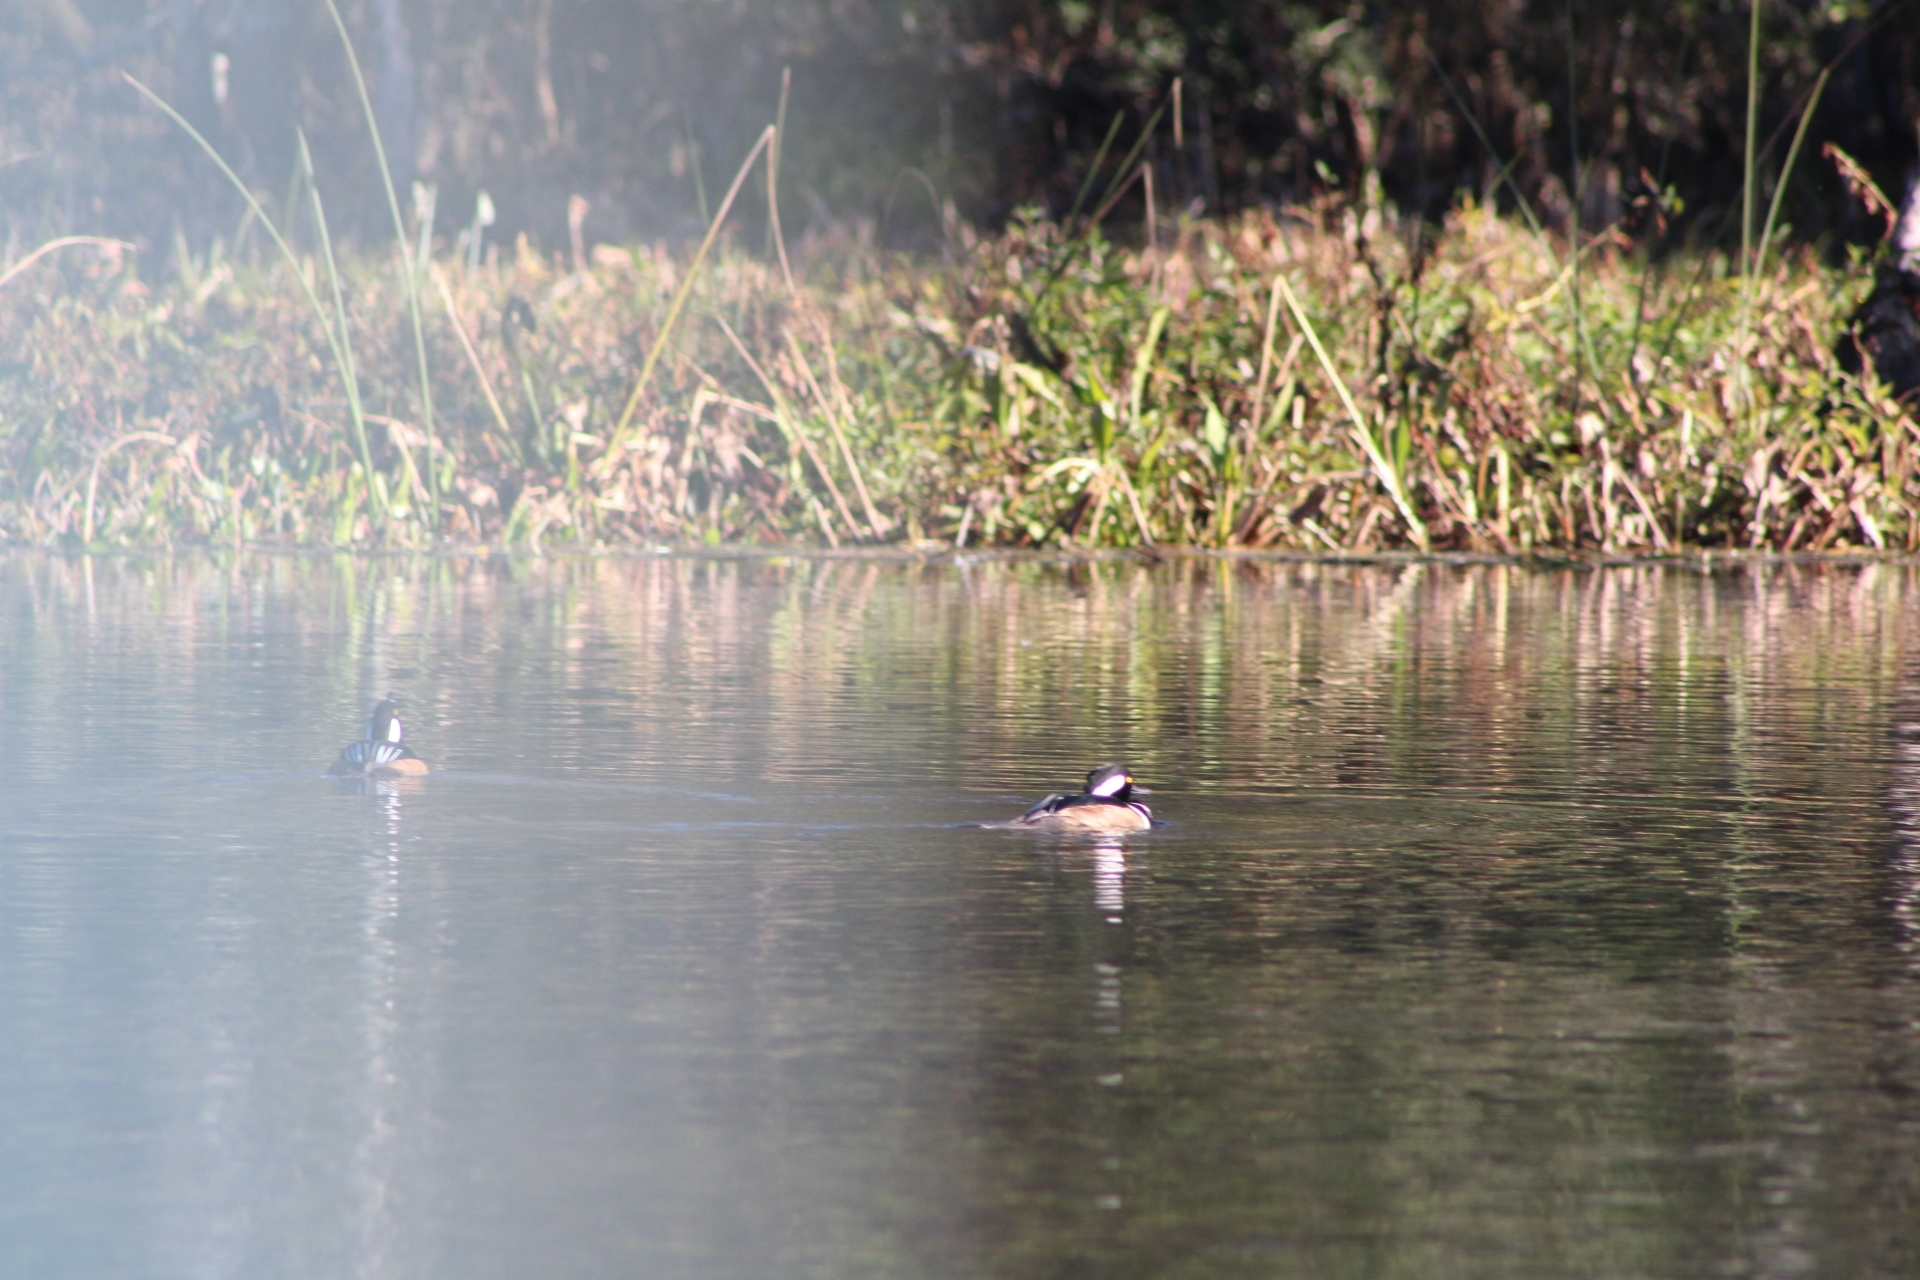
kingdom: Animalia
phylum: Chordata
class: Aves
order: Anseriformes
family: Anatidae
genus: Lophodytes
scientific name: Lophodytes cucullatus
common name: Hooded merganser
